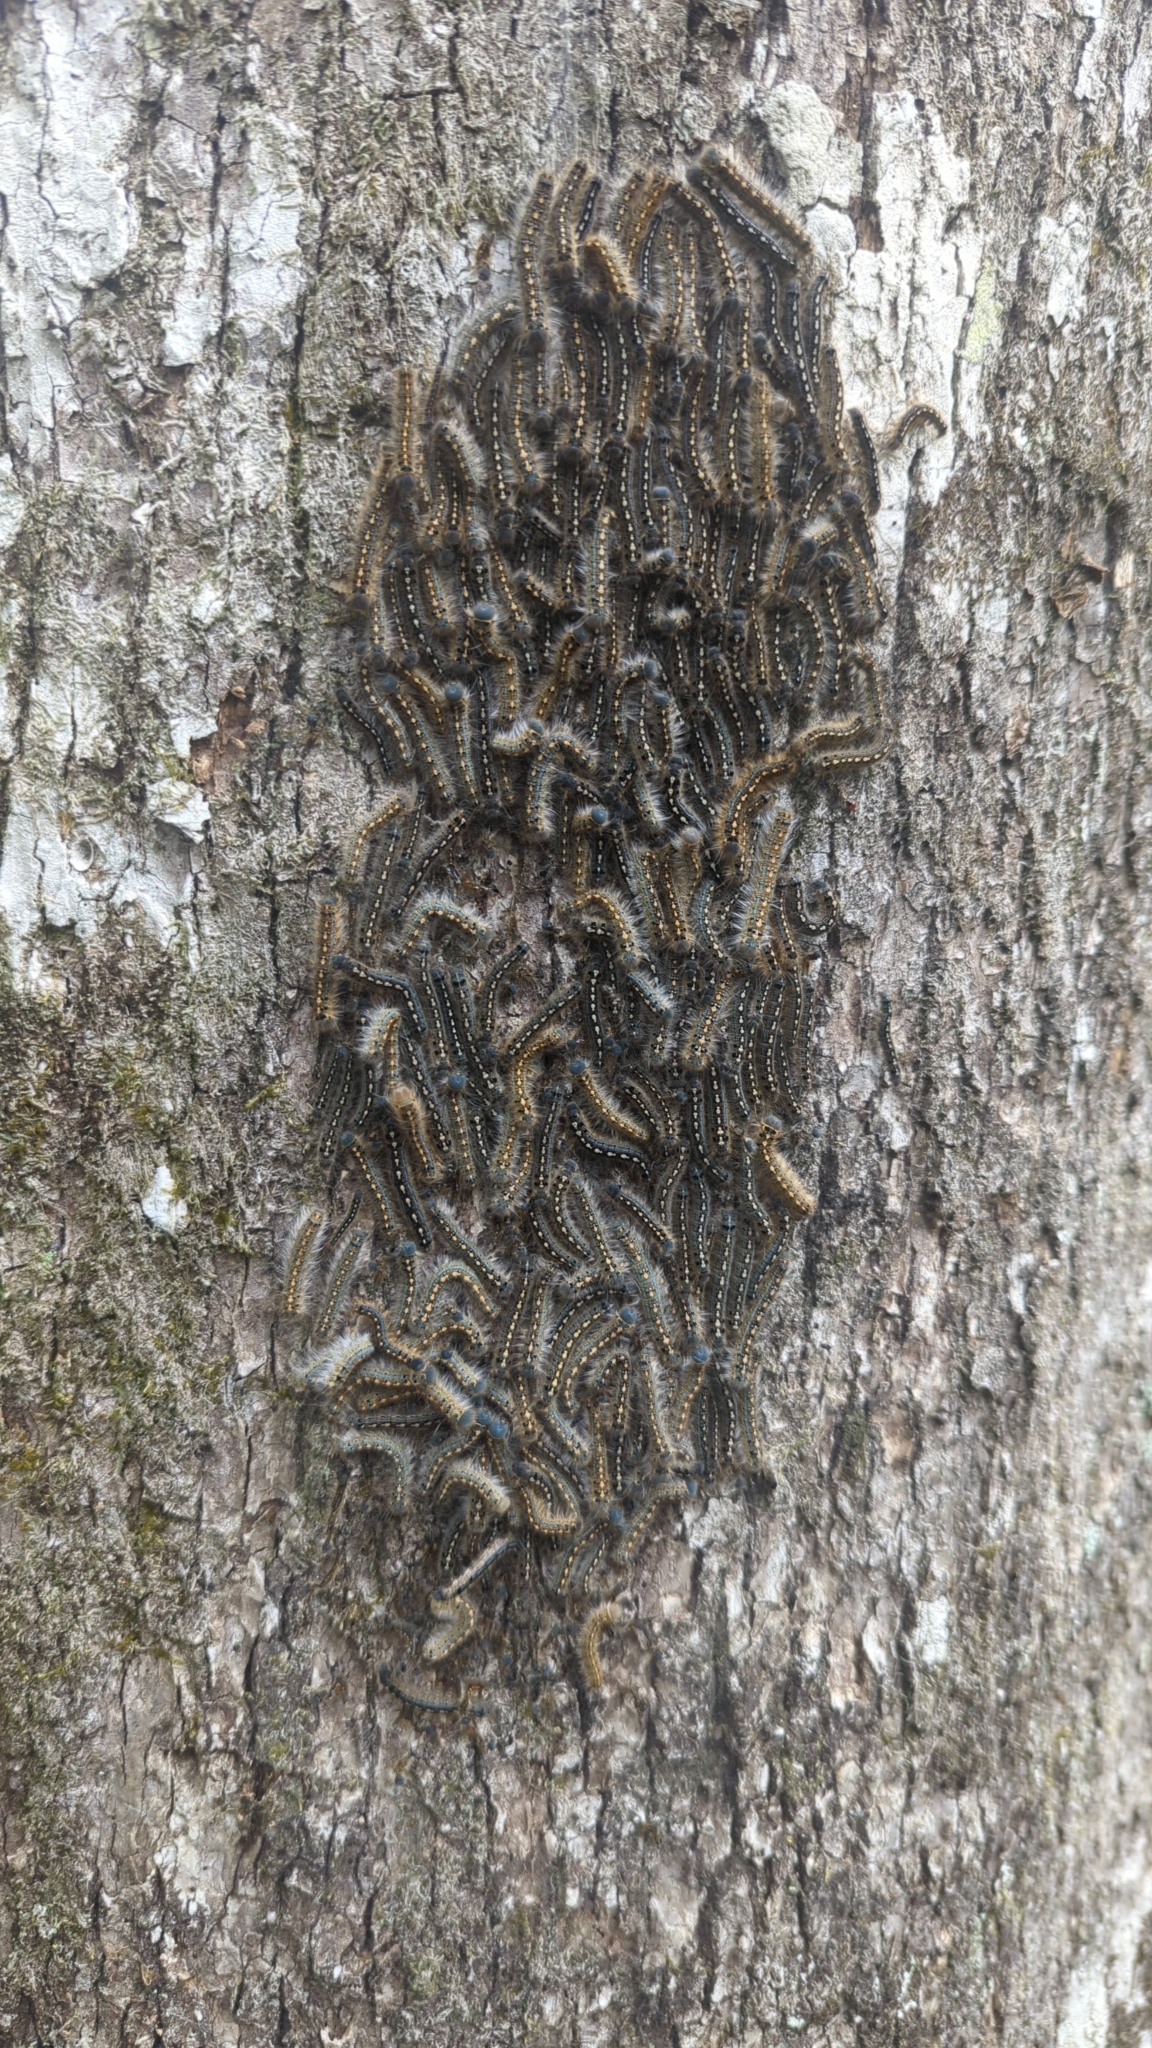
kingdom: Animalia
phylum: Arthropoda
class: Insecta
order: Lepidoptera
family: Lasiocampidae
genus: Malacosoma
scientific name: Malacosoma disstria
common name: Forest tent caterpillar
